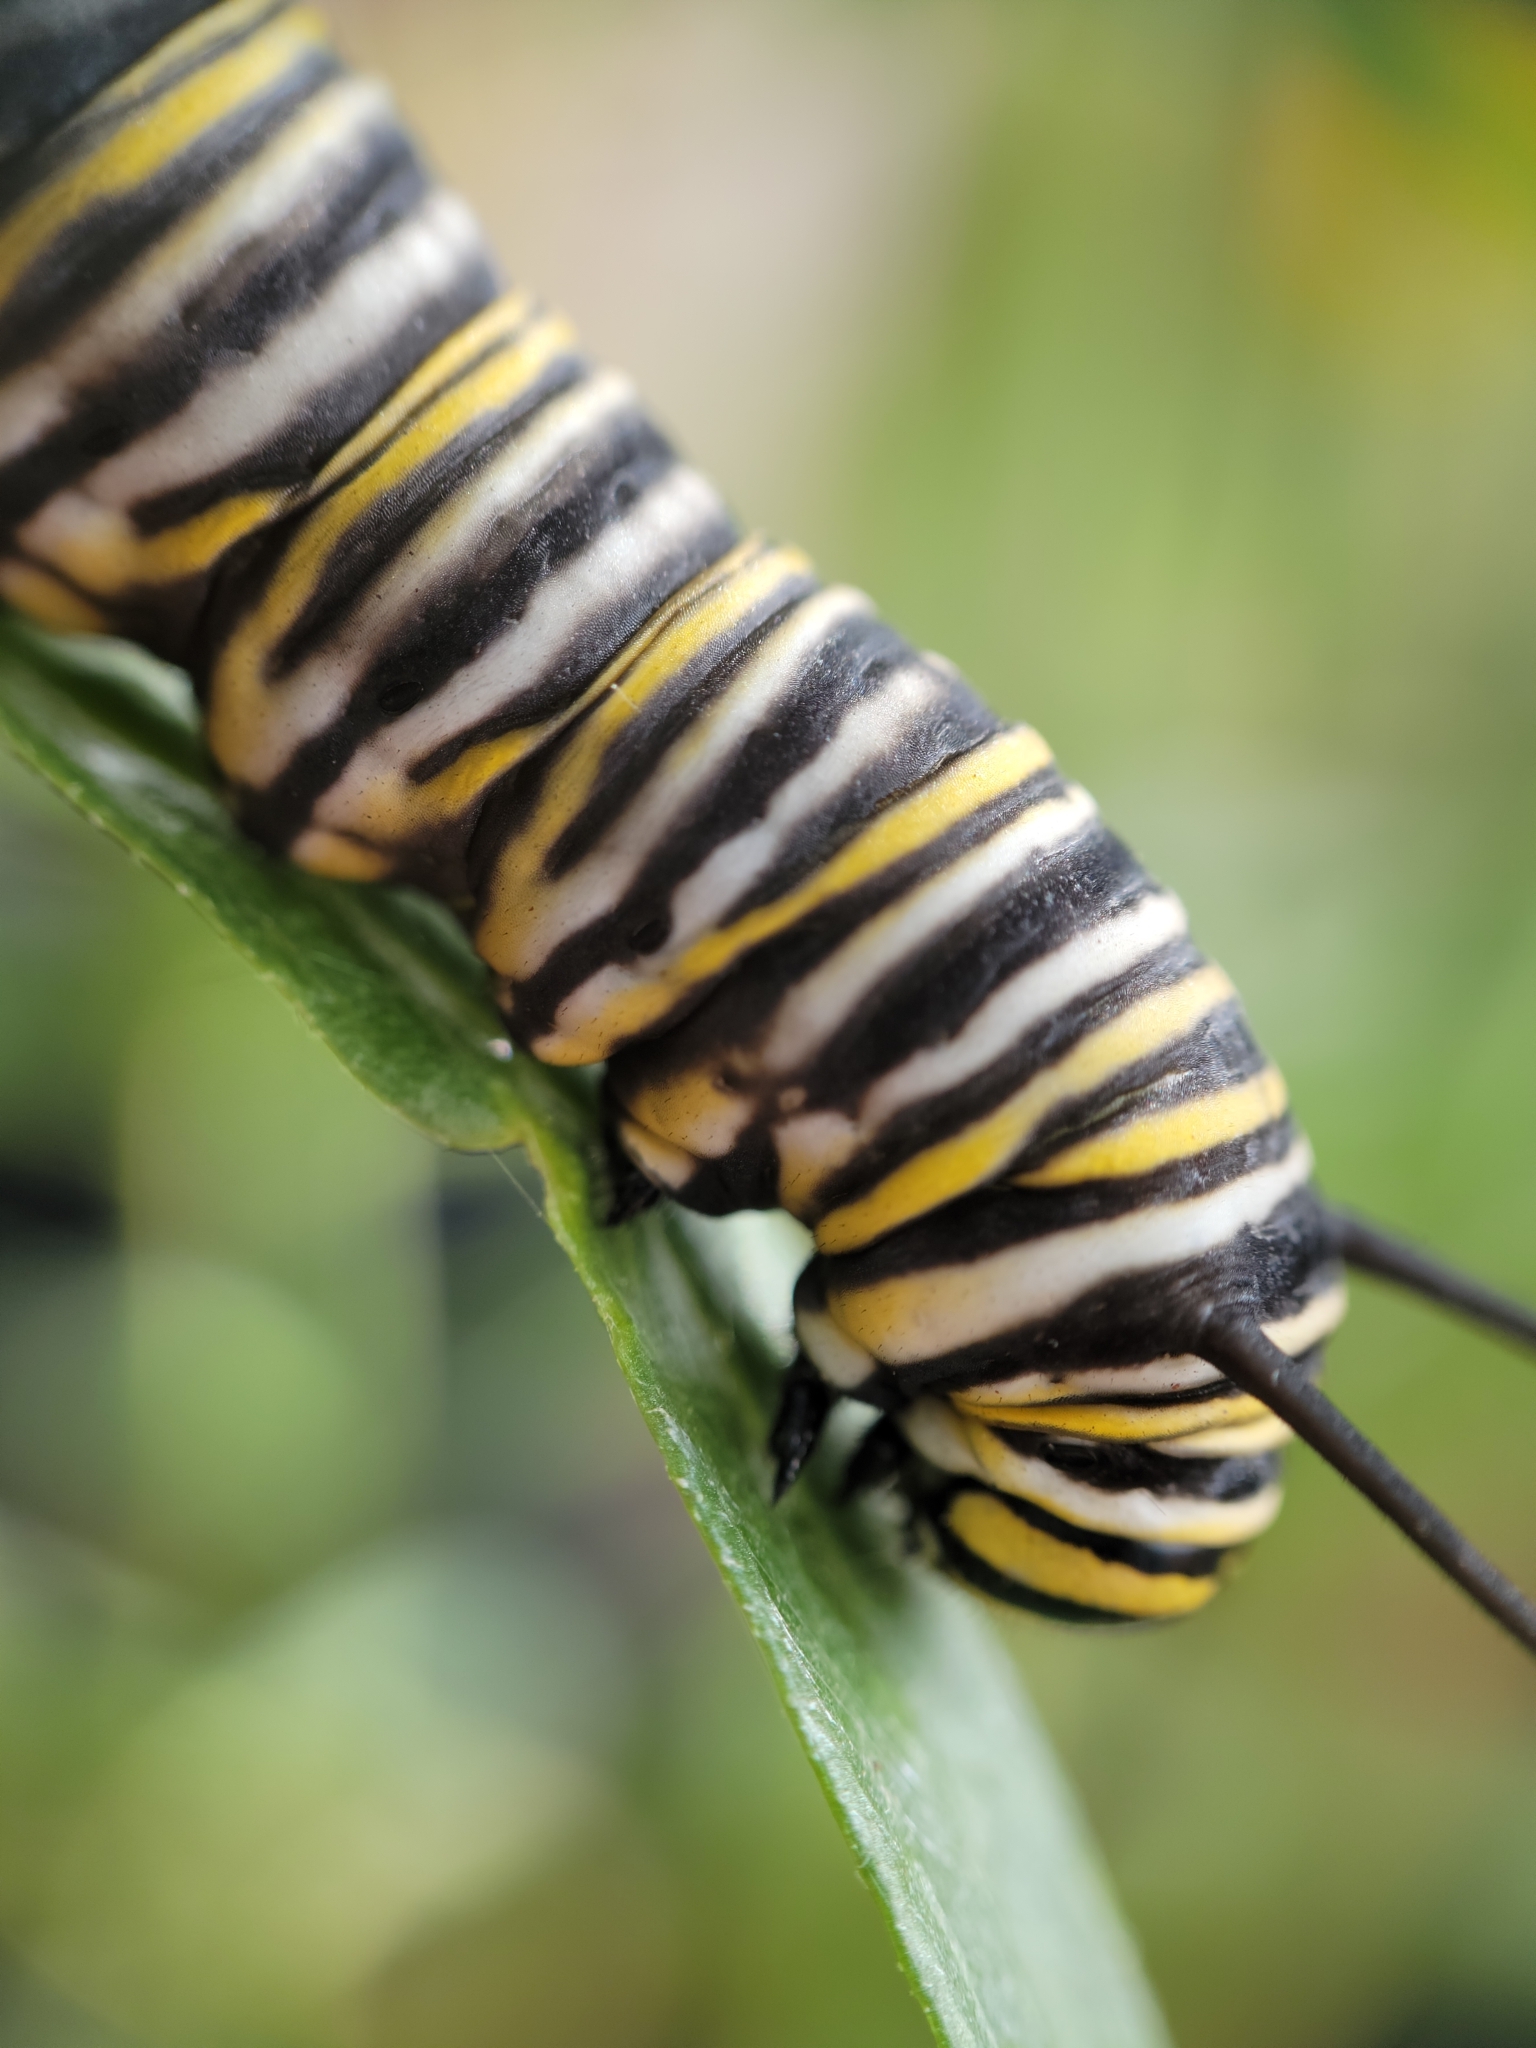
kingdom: Animalia
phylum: Arthropoda
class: Insecta
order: Lepidoptera
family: Nymphalidae
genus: Danaus
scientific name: Danaus plexippus
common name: Monarch
